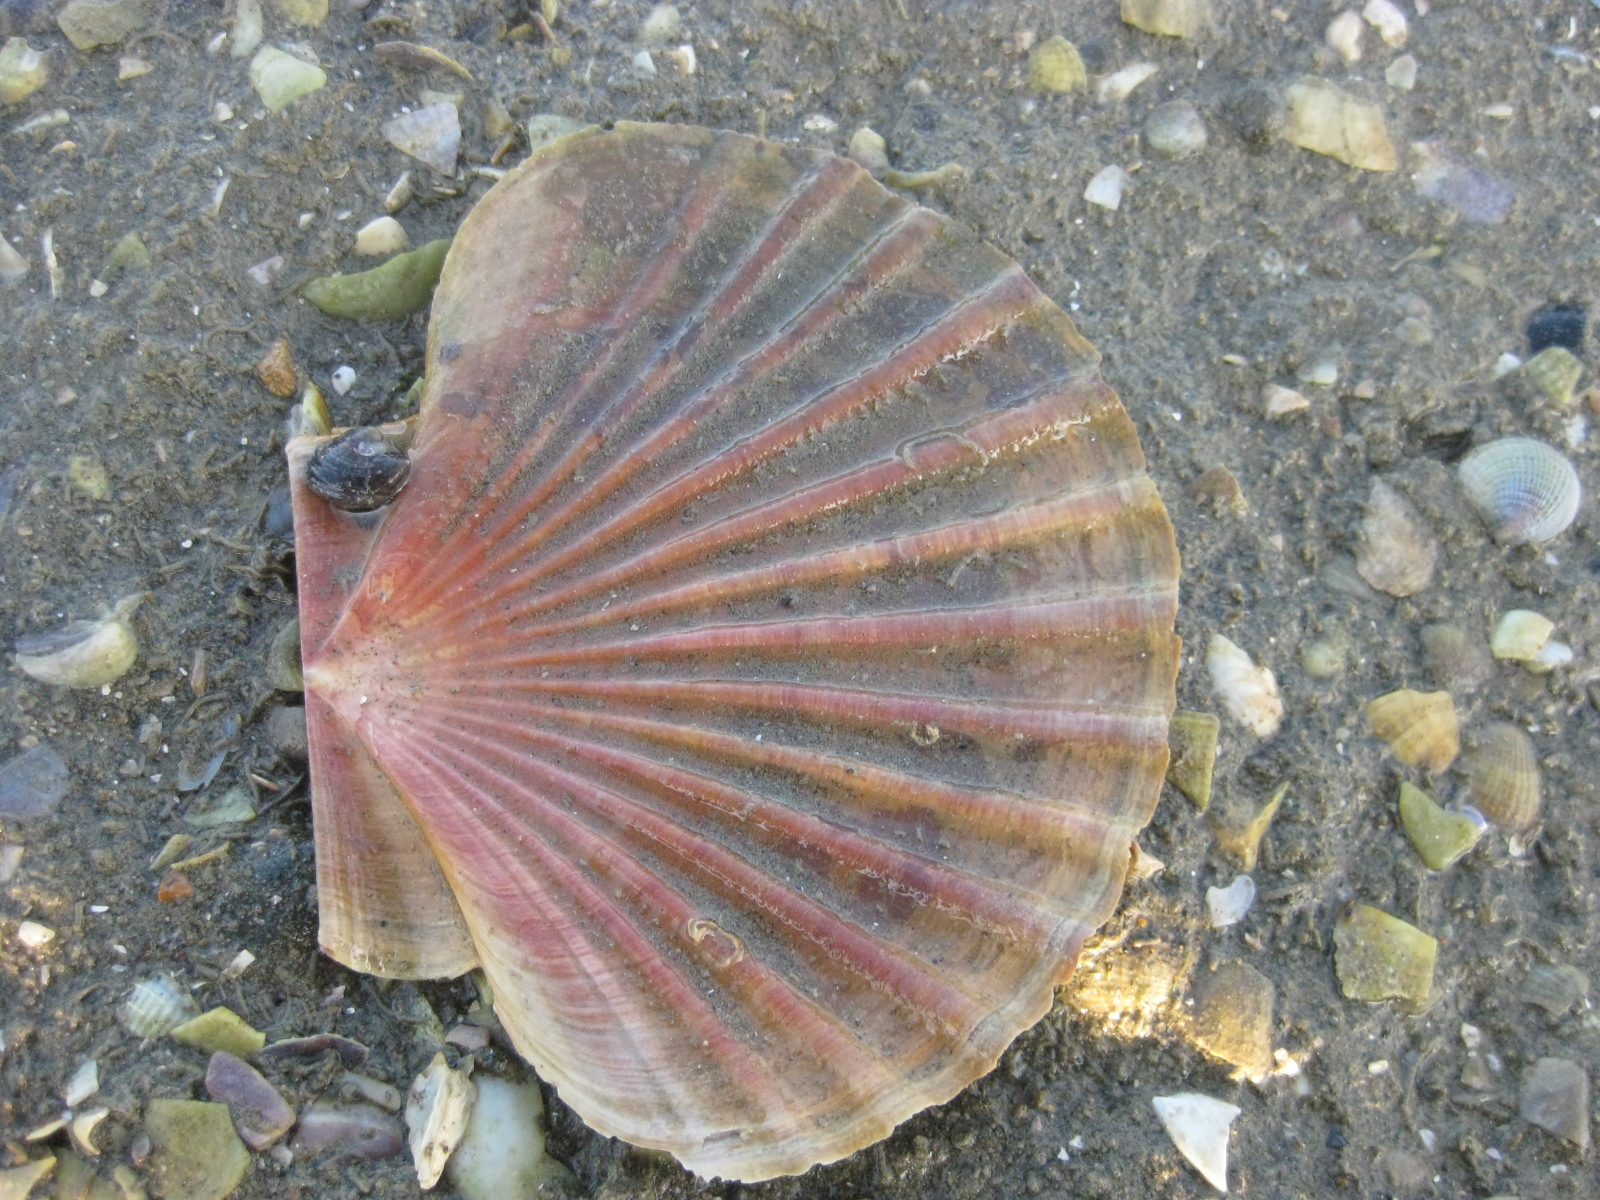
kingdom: Animalia
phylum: Mollusca
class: Bivalvia
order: Pectinida
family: Pectinidae
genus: Pecten
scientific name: Pecten novaezelandiae
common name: New zealand scallop
